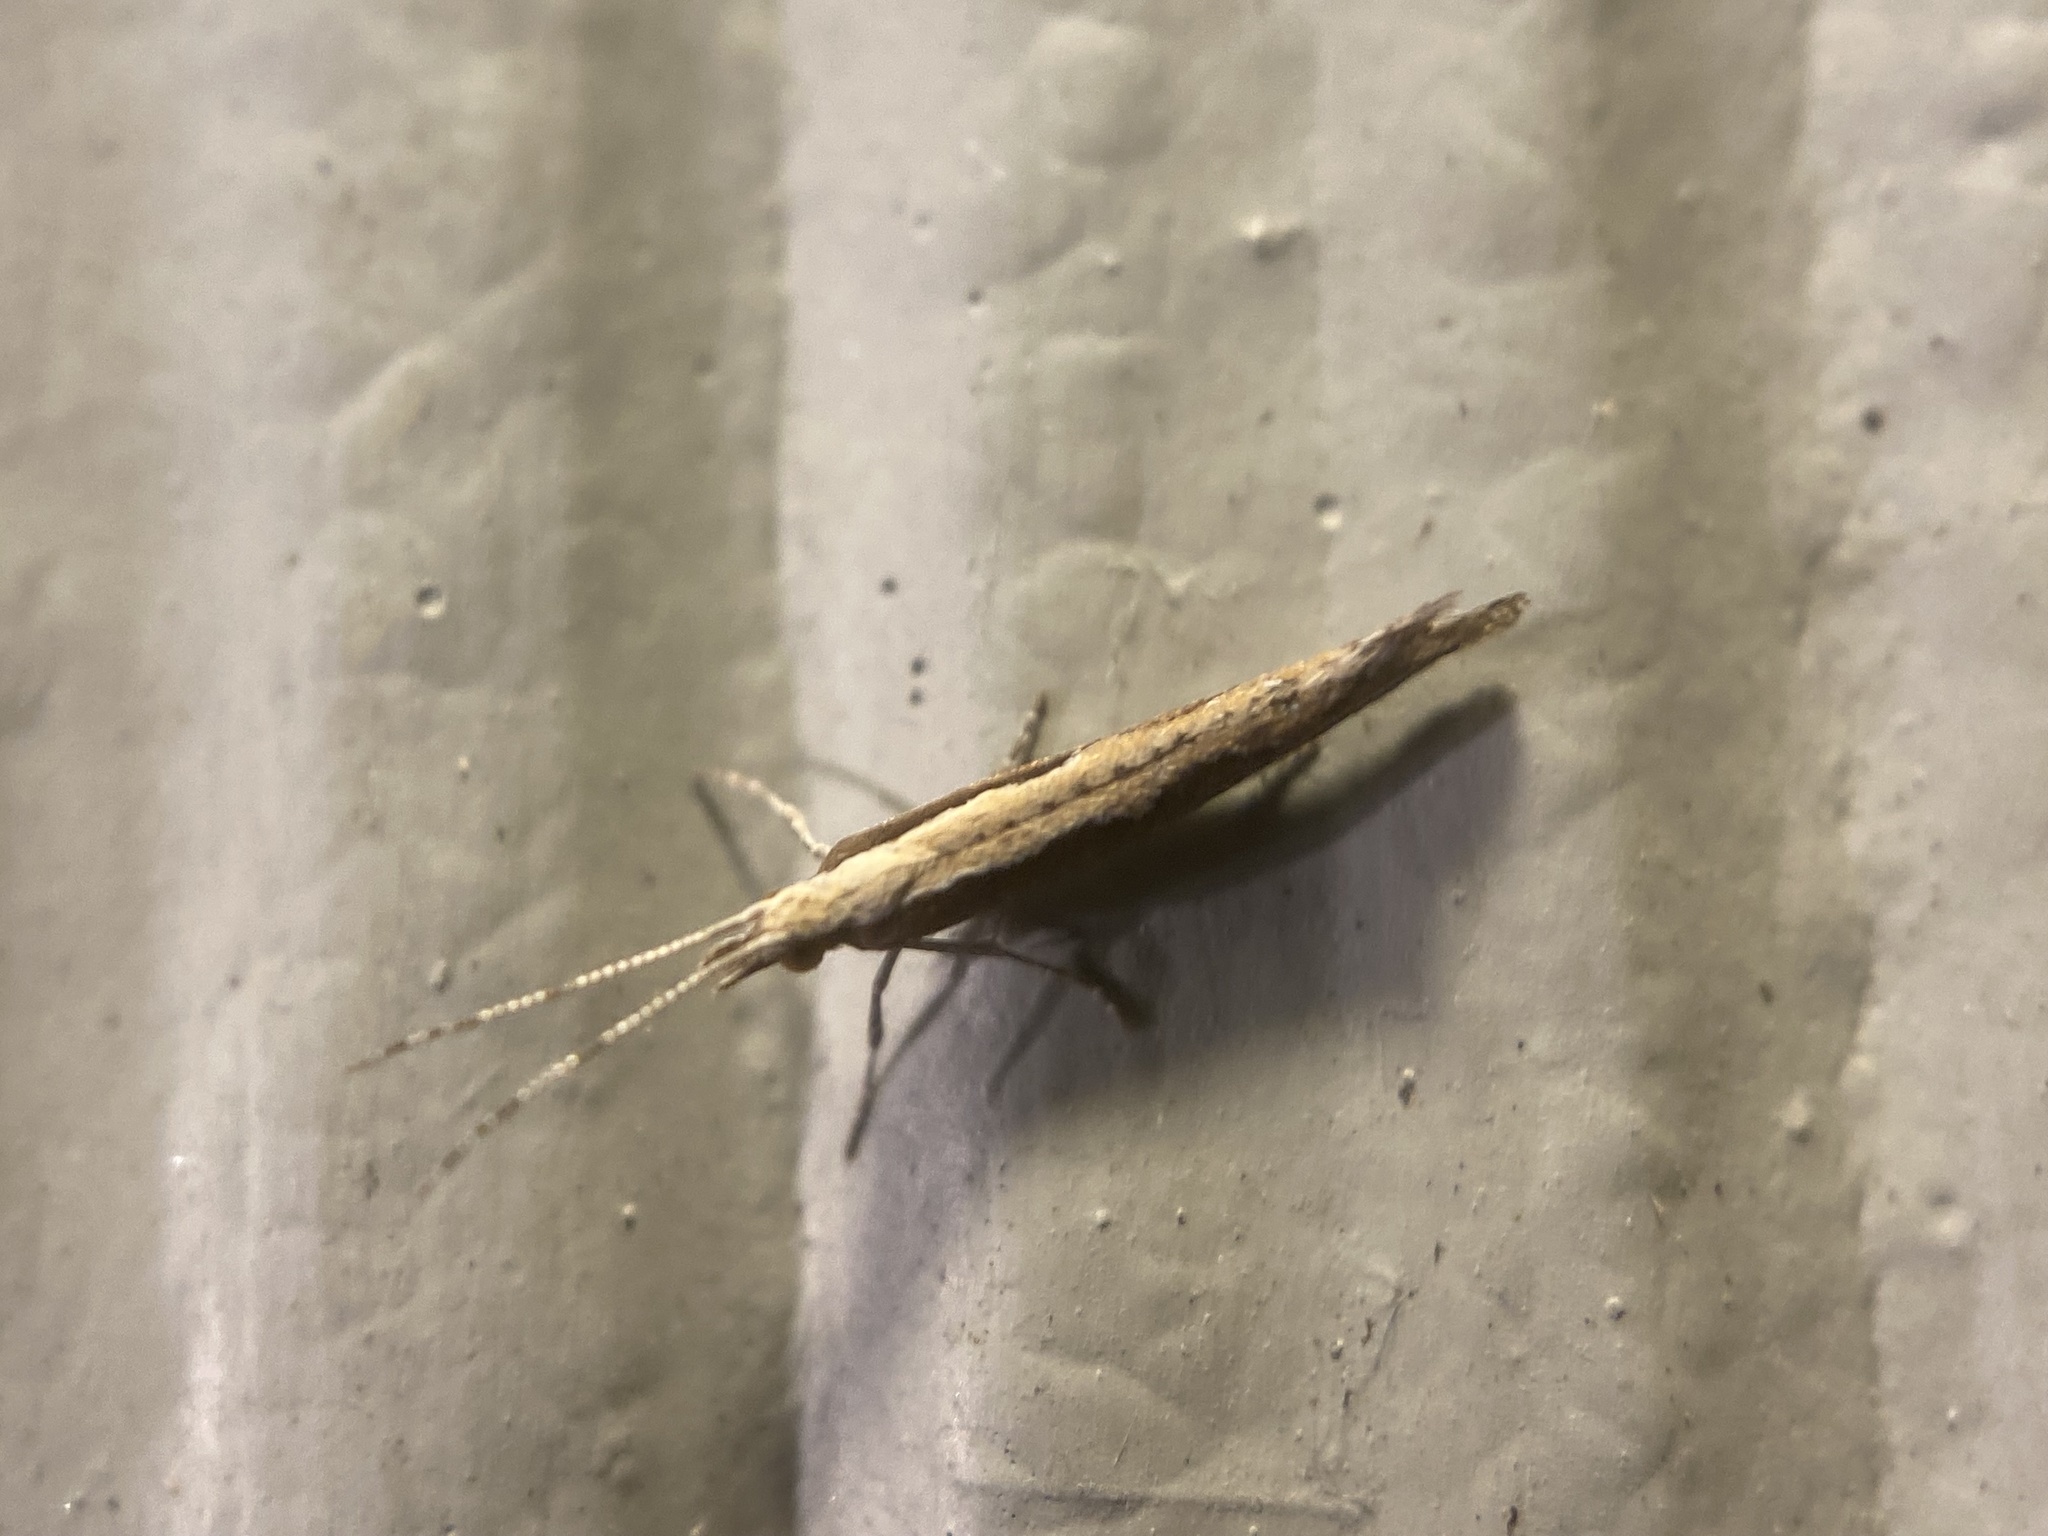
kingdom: Animalia
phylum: Arthropoda
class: Insecta
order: Lepidoptera
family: Plutellidae
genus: Plutella
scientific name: Plutella xylostella
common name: Diamond-back moth
